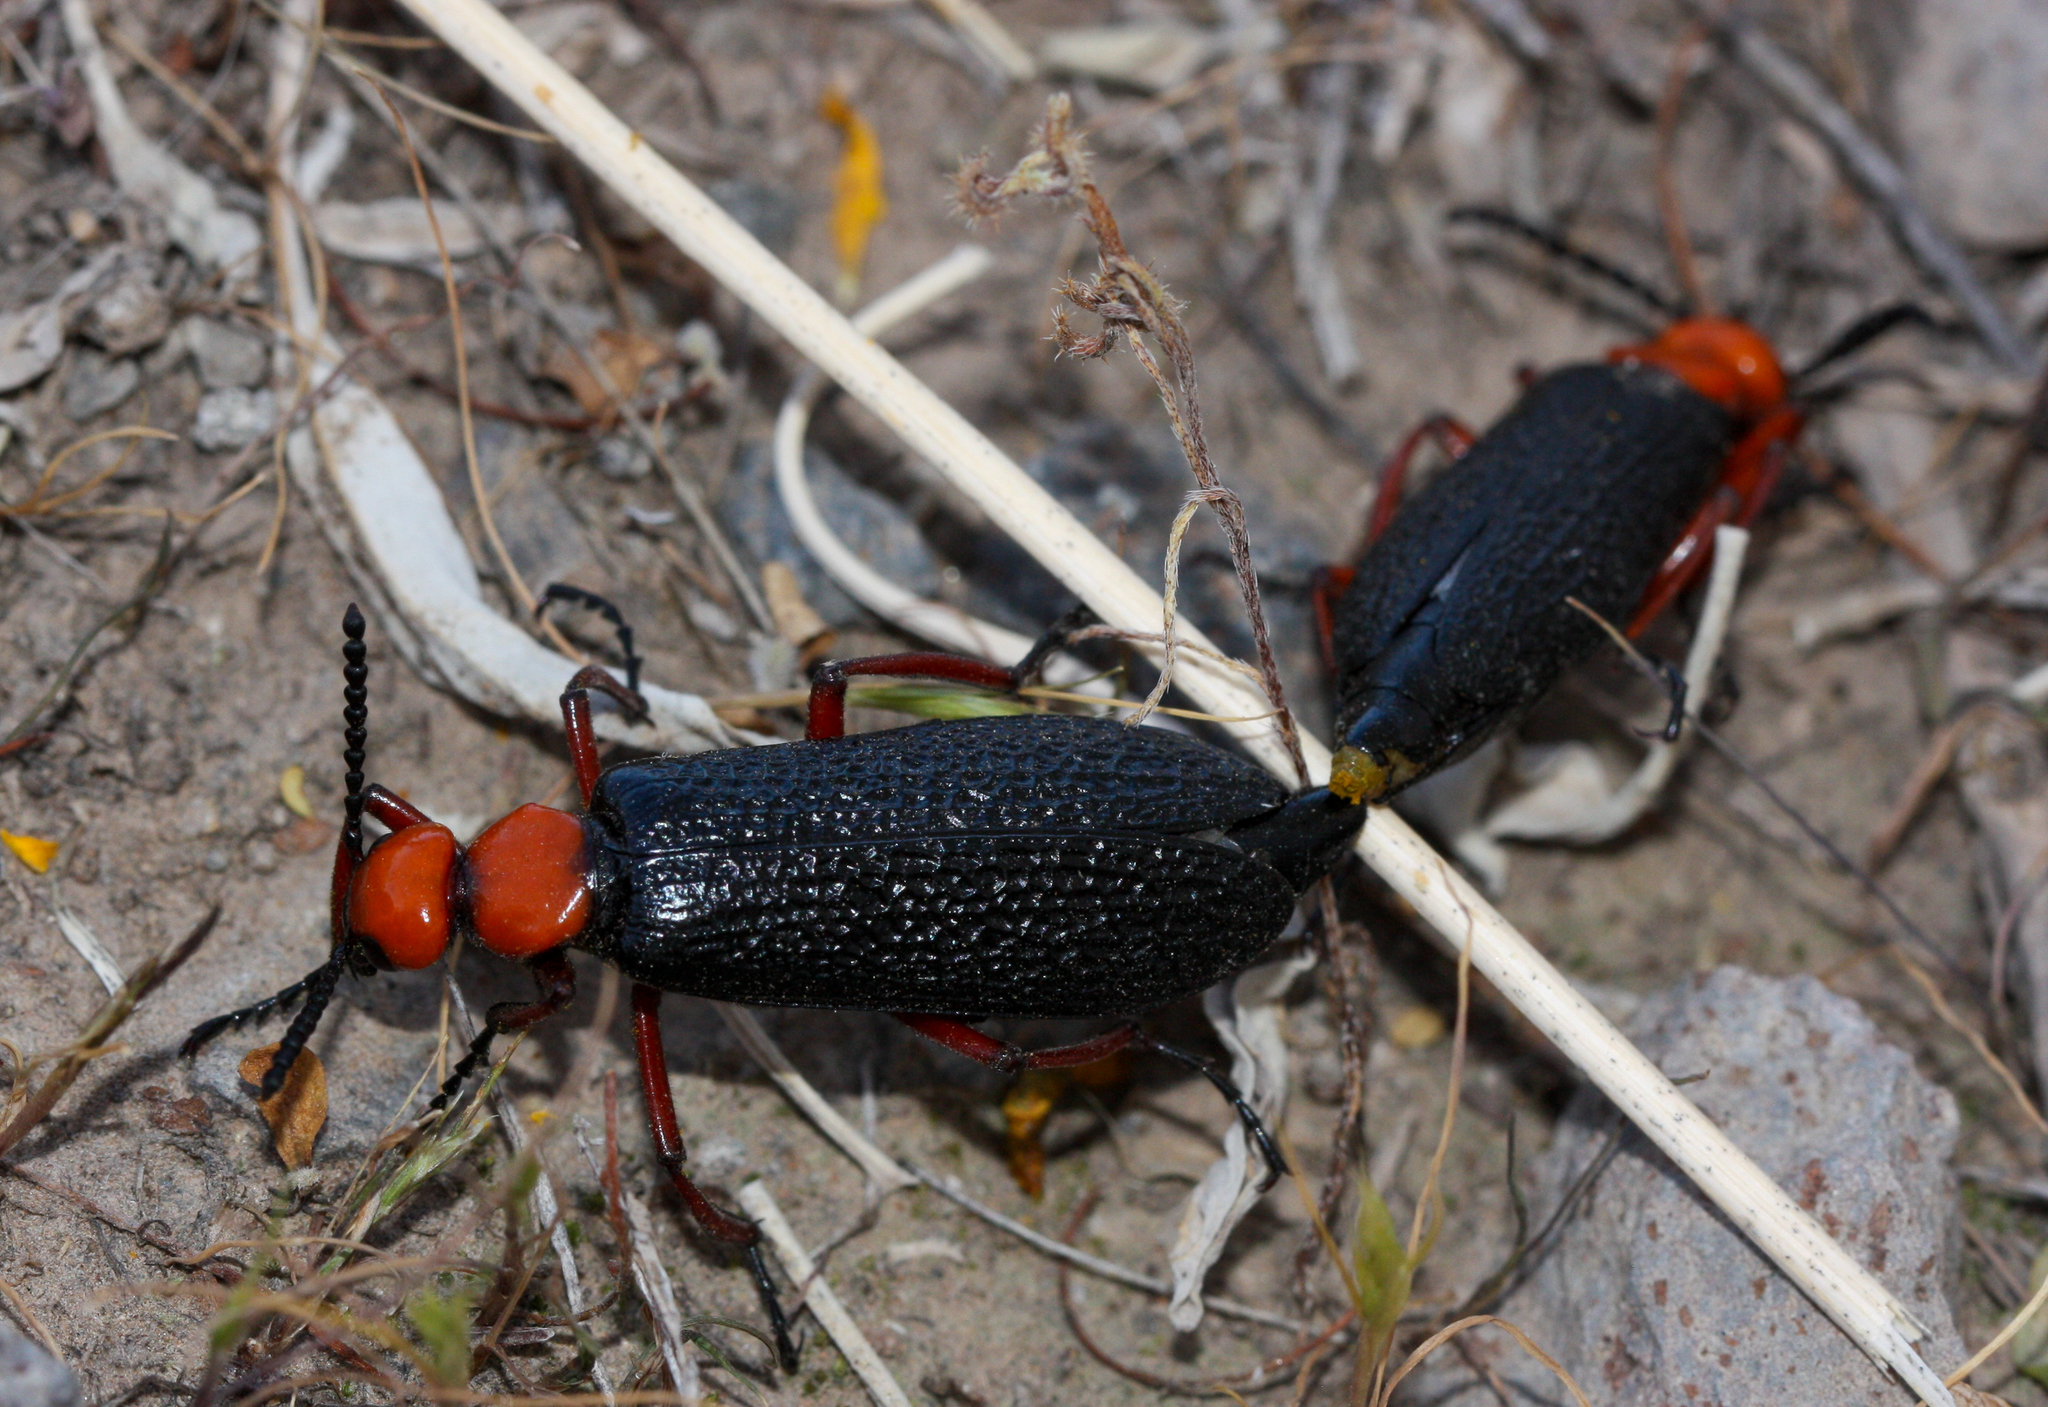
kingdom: Animalia
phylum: Arthropoda
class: Insecta
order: Coleoptera
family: Meloidae
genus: Lytta
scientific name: Lytta magister
